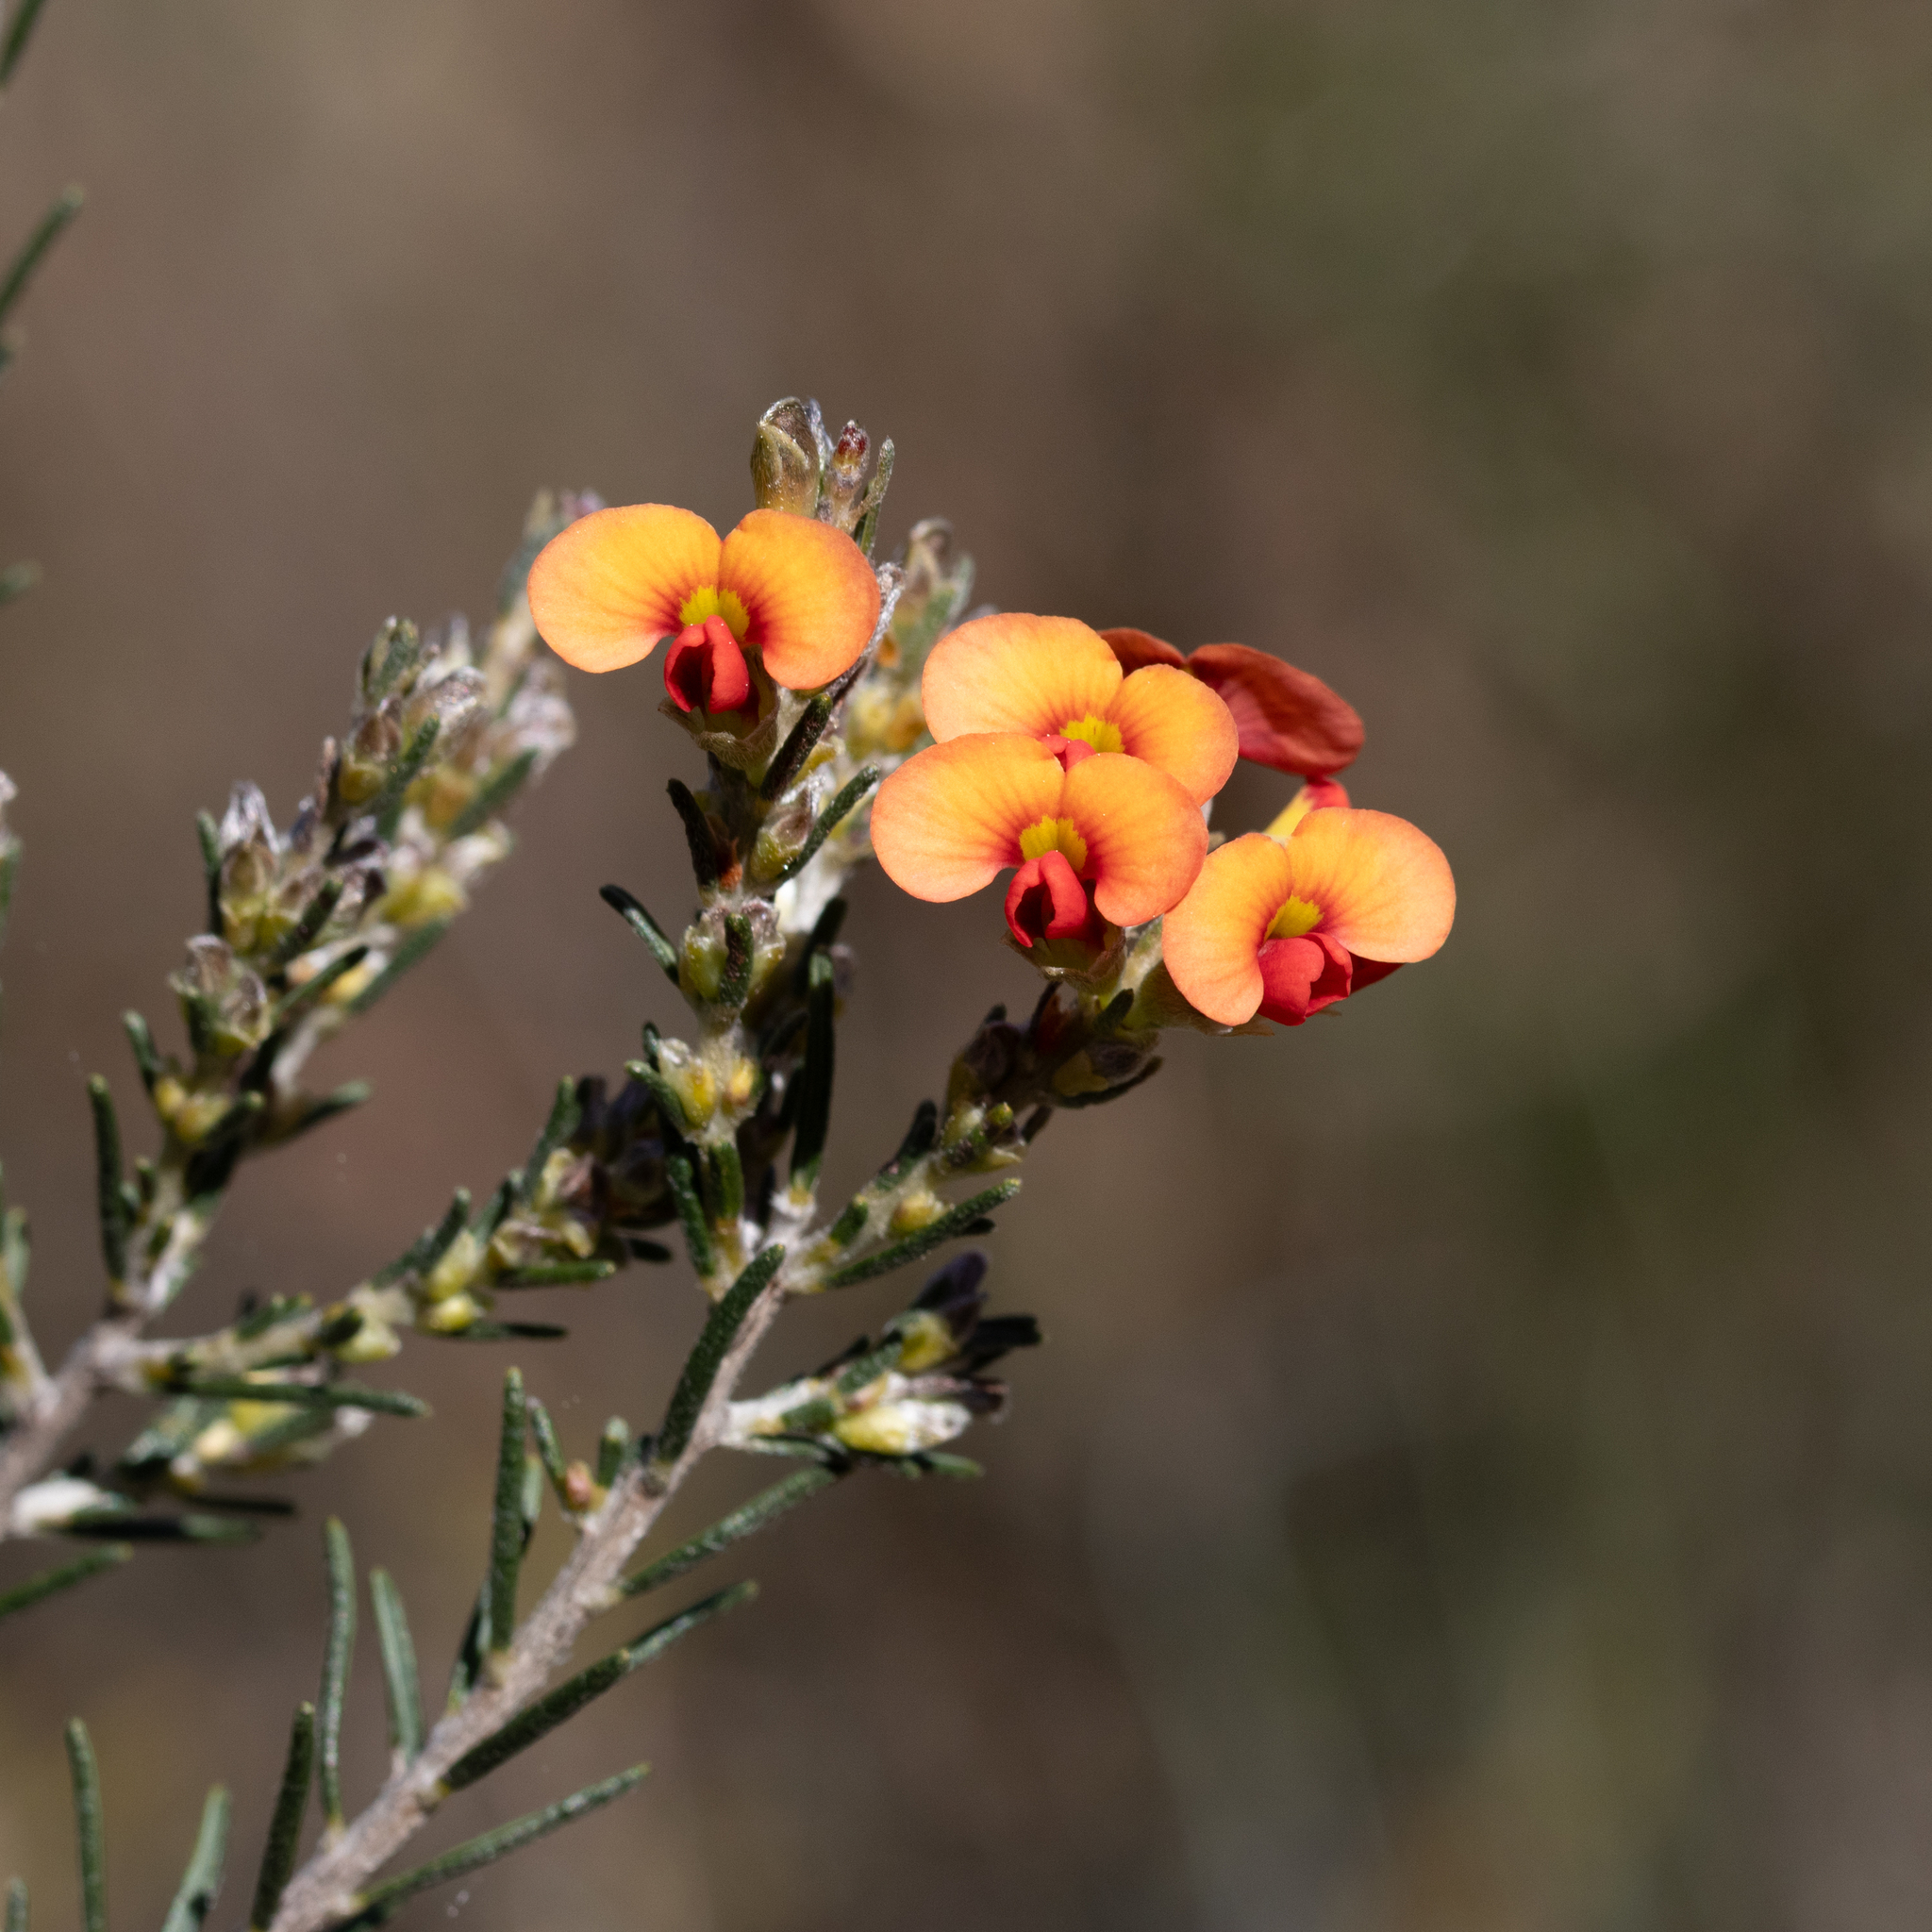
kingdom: Plantae
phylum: Tracheophyta
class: Magnoliopsida
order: Fabales
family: Fabaceae
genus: Dillwynia
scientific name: Dillwynia sericea
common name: Showy parrot-pea
